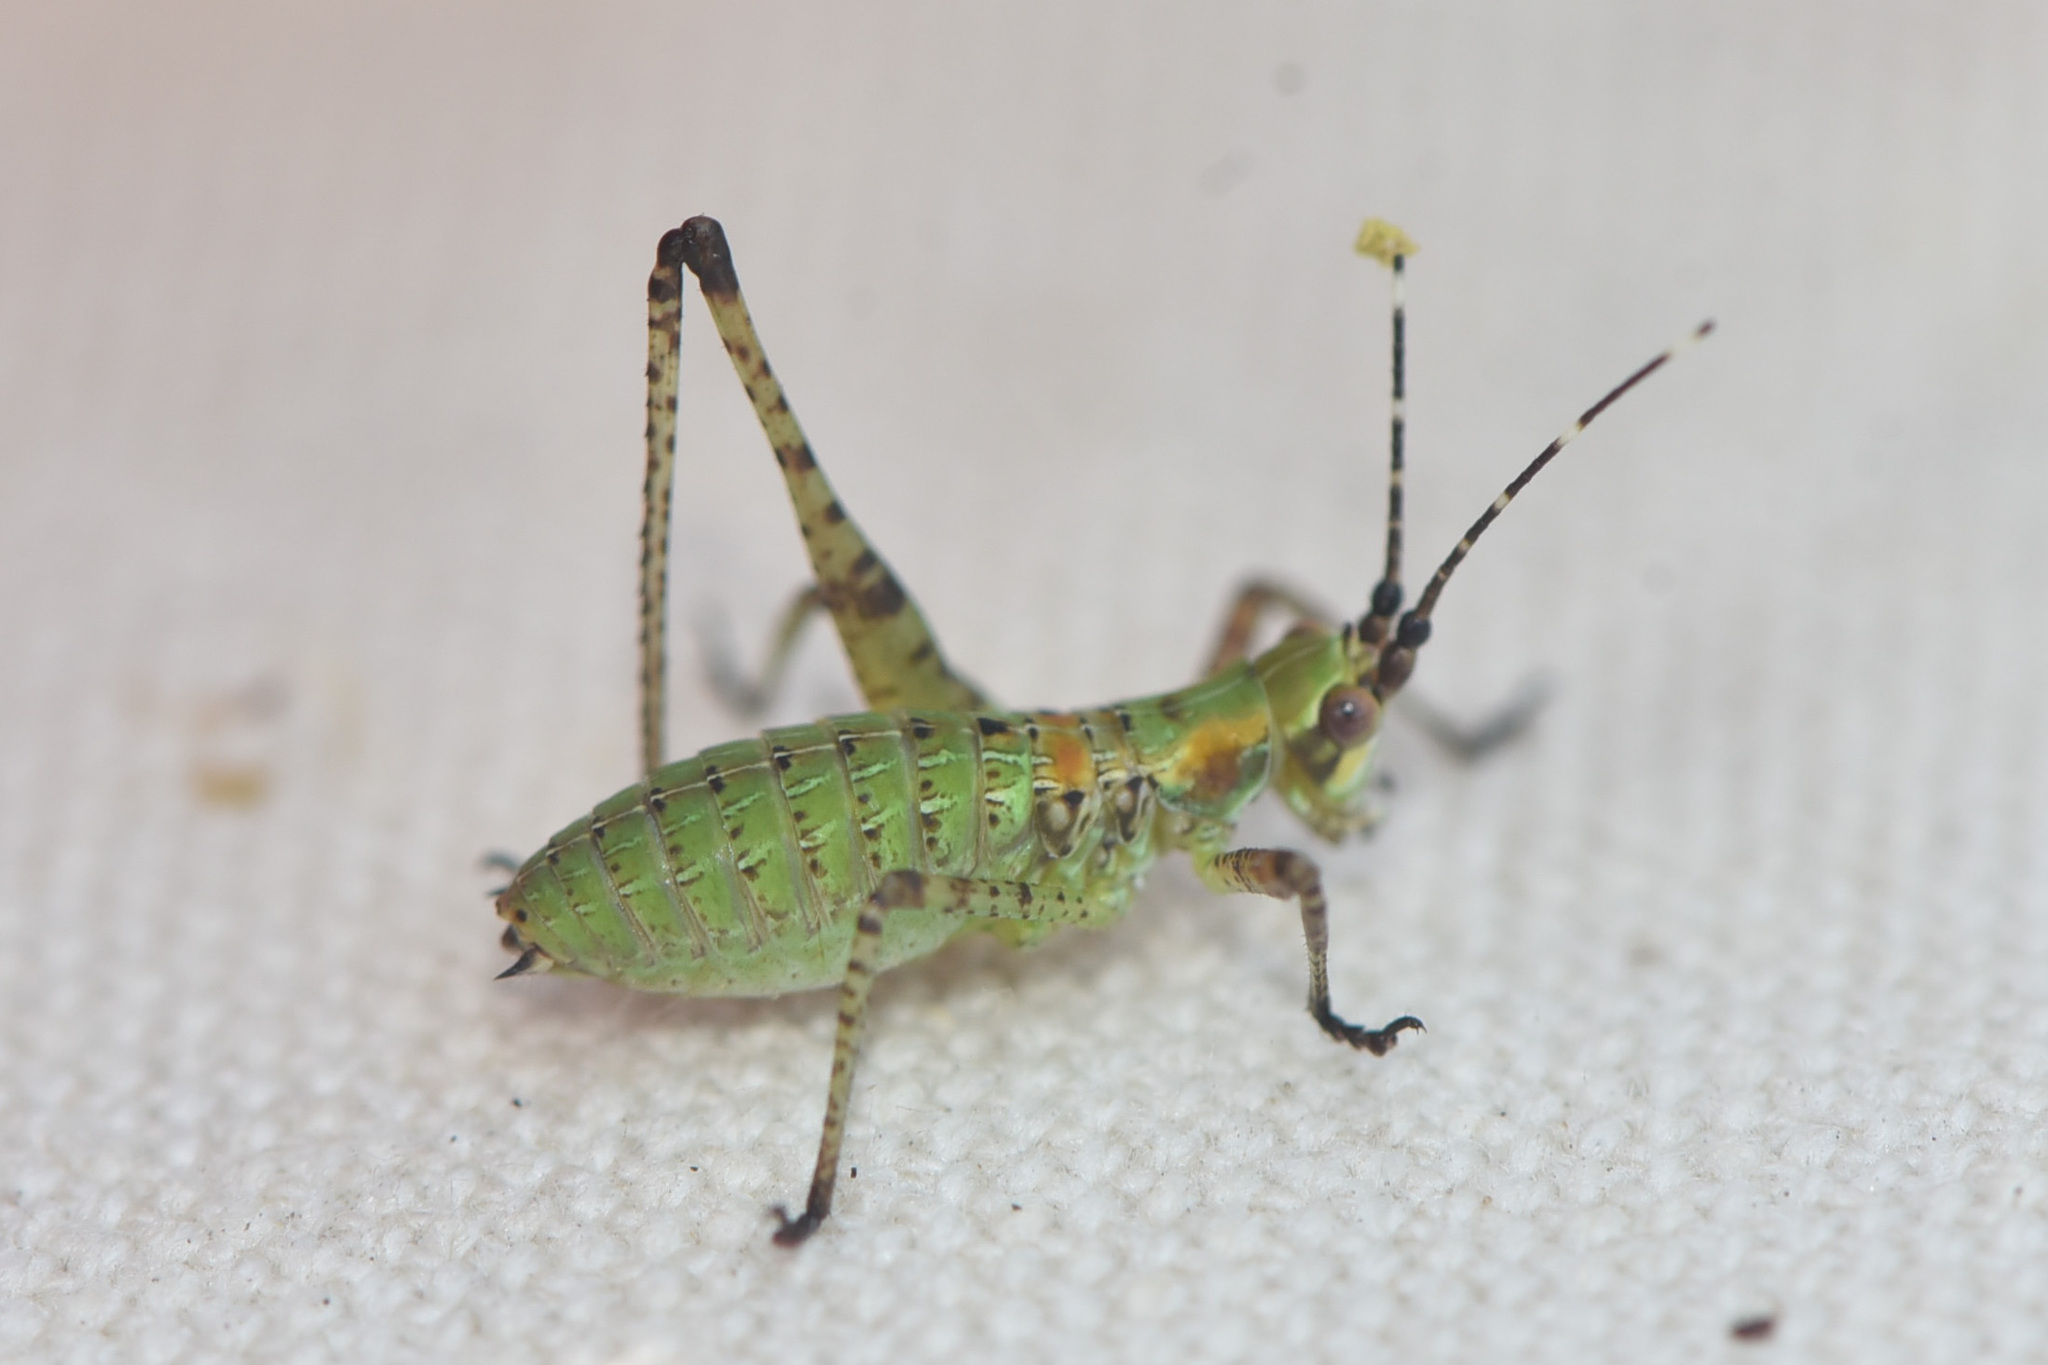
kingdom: Animalia
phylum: Arthropoda
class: Insecta
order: Orthoptera
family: Tettigoniidae
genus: Scudderia
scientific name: Scudderia furcata
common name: Fork-tailed bush katydid
